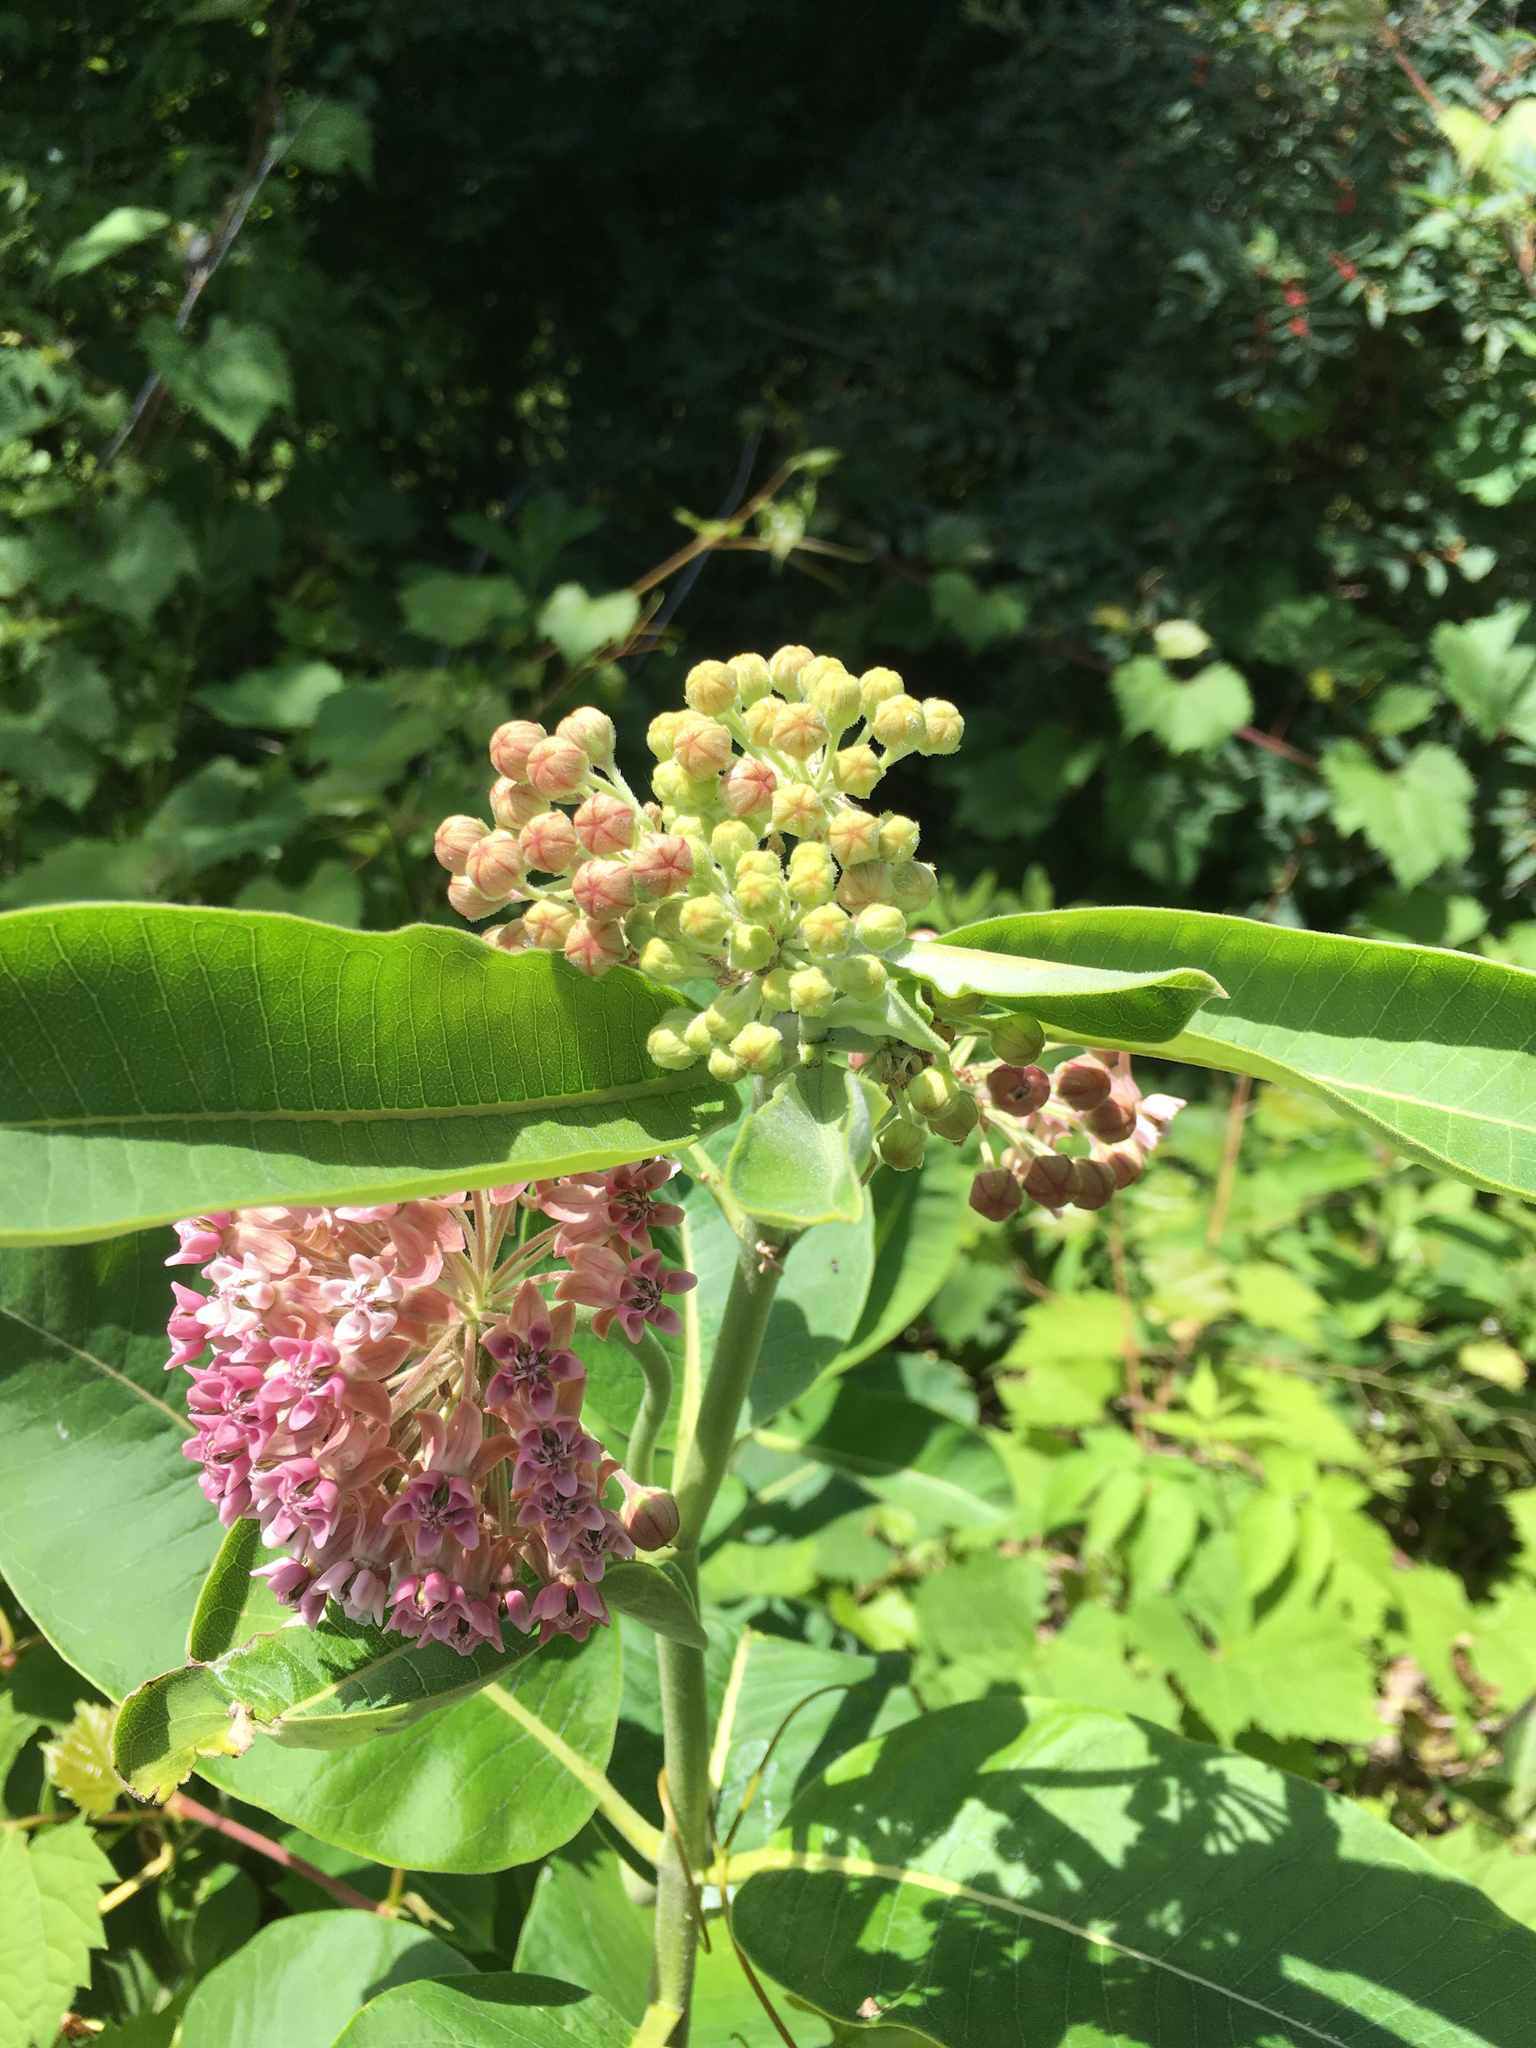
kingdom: Plantae
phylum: Tracheophyta
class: Magnoliopsida
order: Gentianales
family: Apocynaceae
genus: Asclepias
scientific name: Asclepias syriaca
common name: Common milkweed
